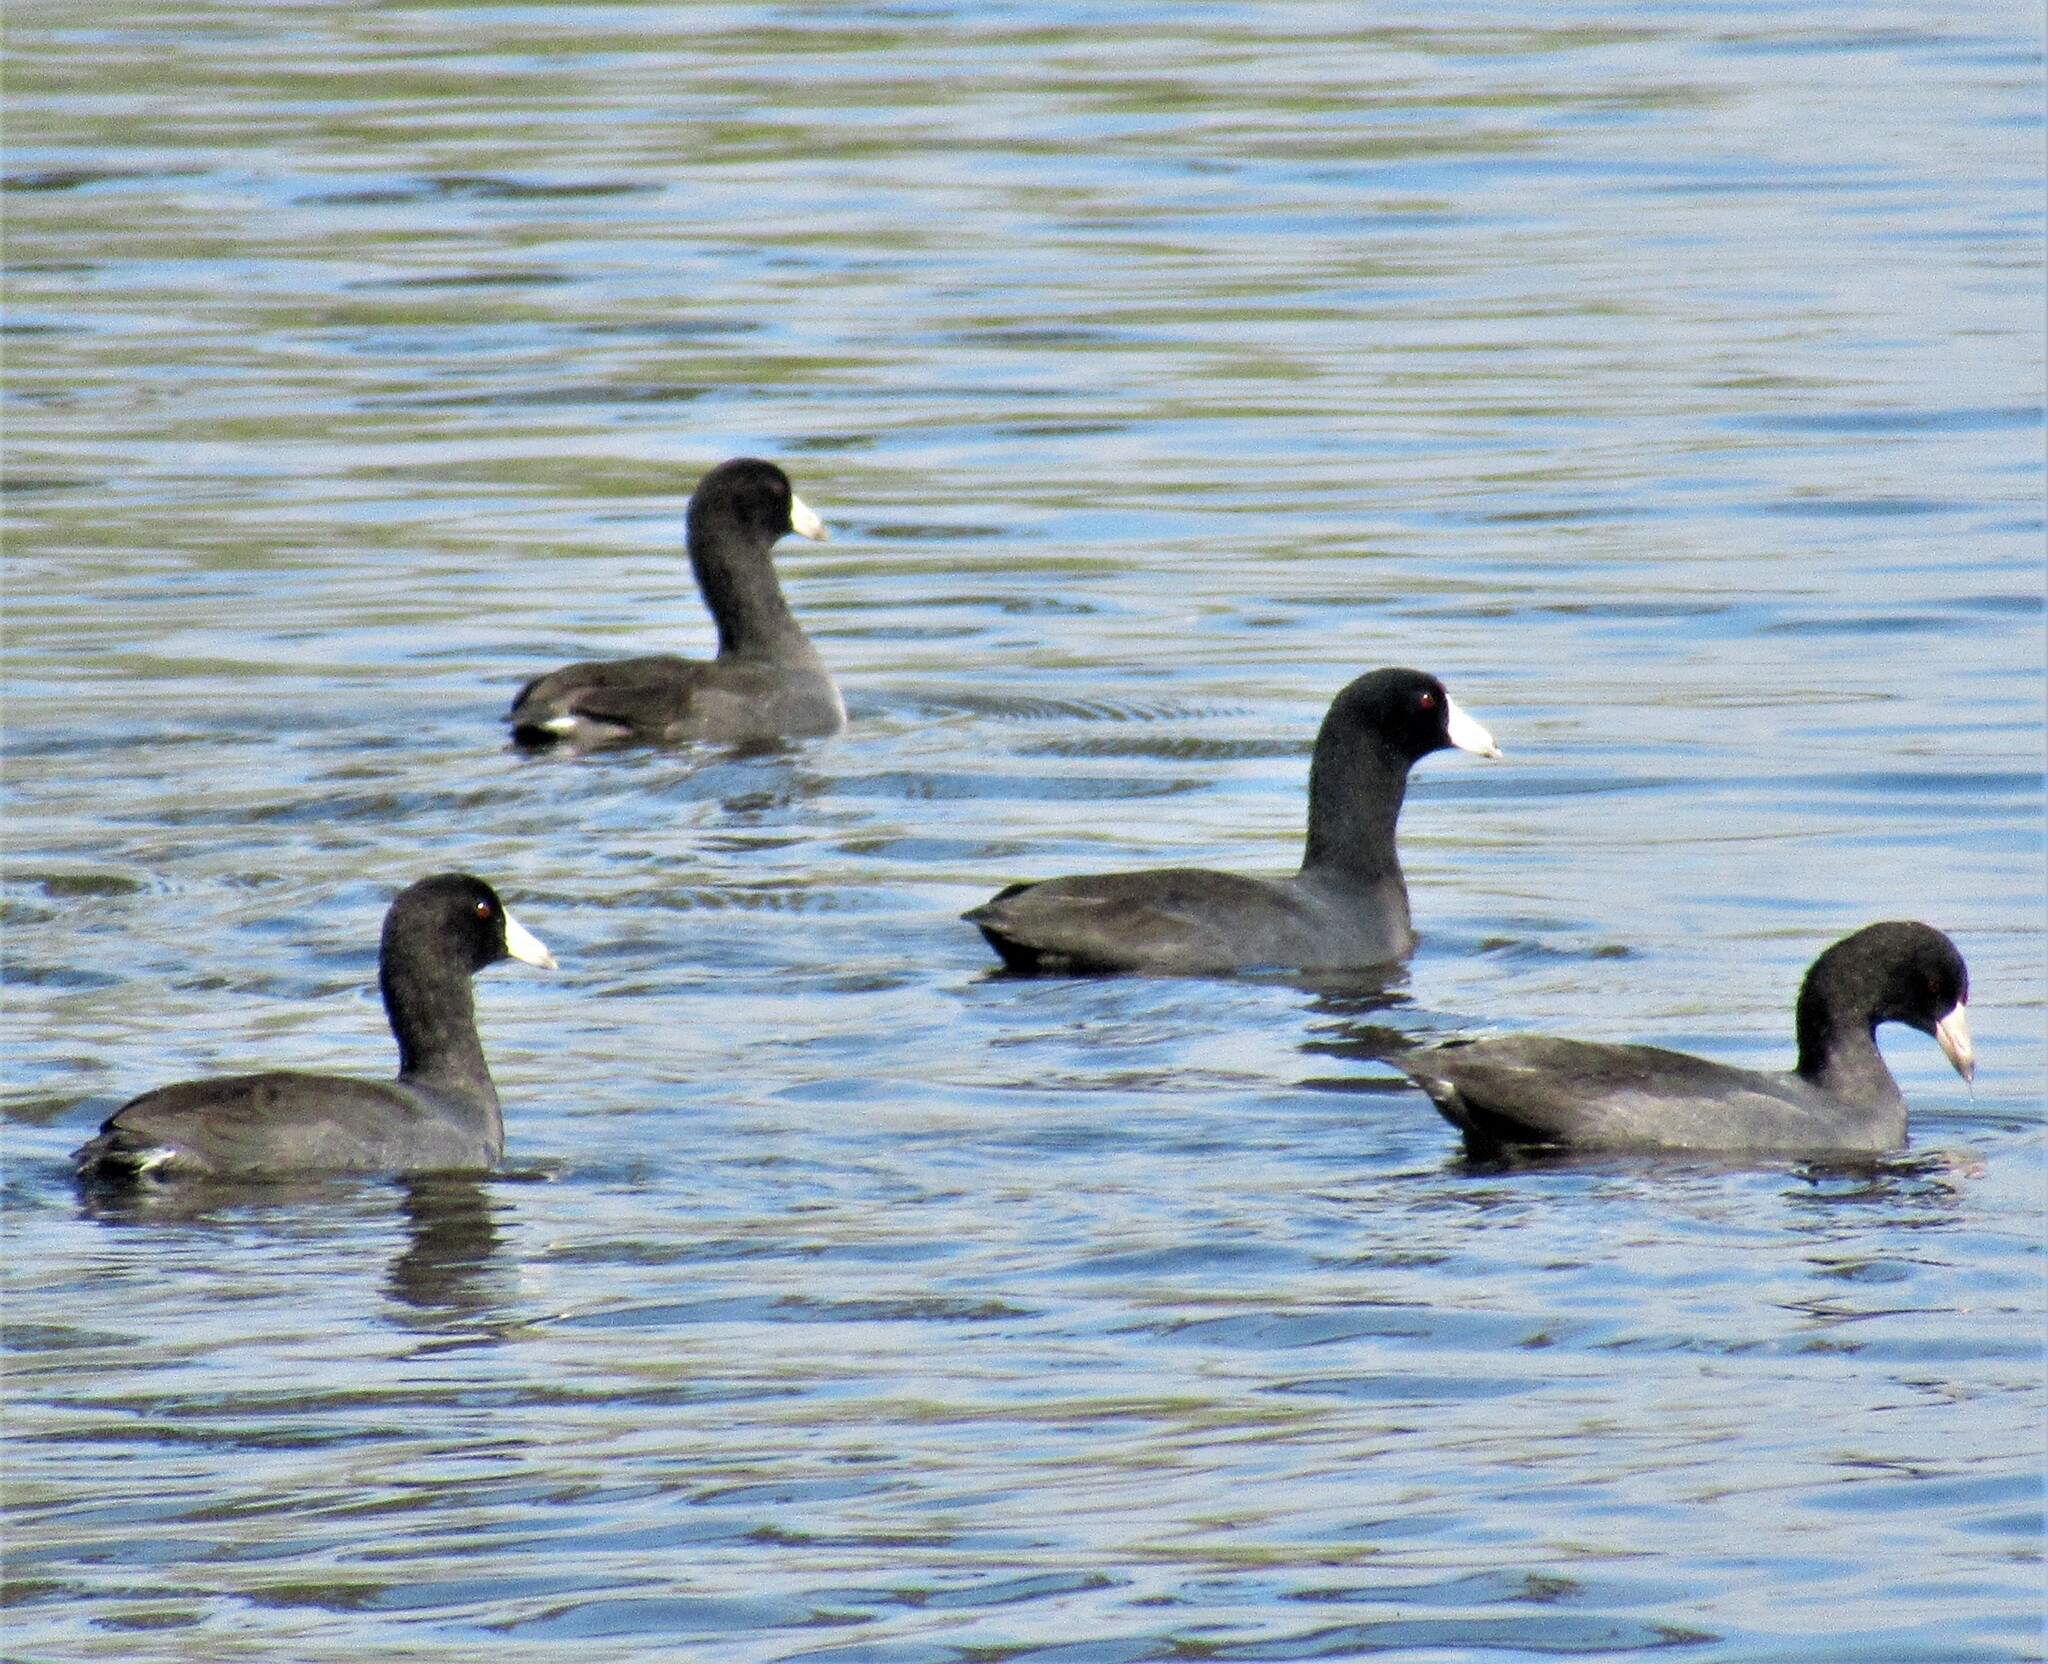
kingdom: Animalia
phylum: Chordata
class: Aves
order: Gruiformes
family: Rallidae
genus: Fulica
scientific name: Fulica americana
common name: American coot
